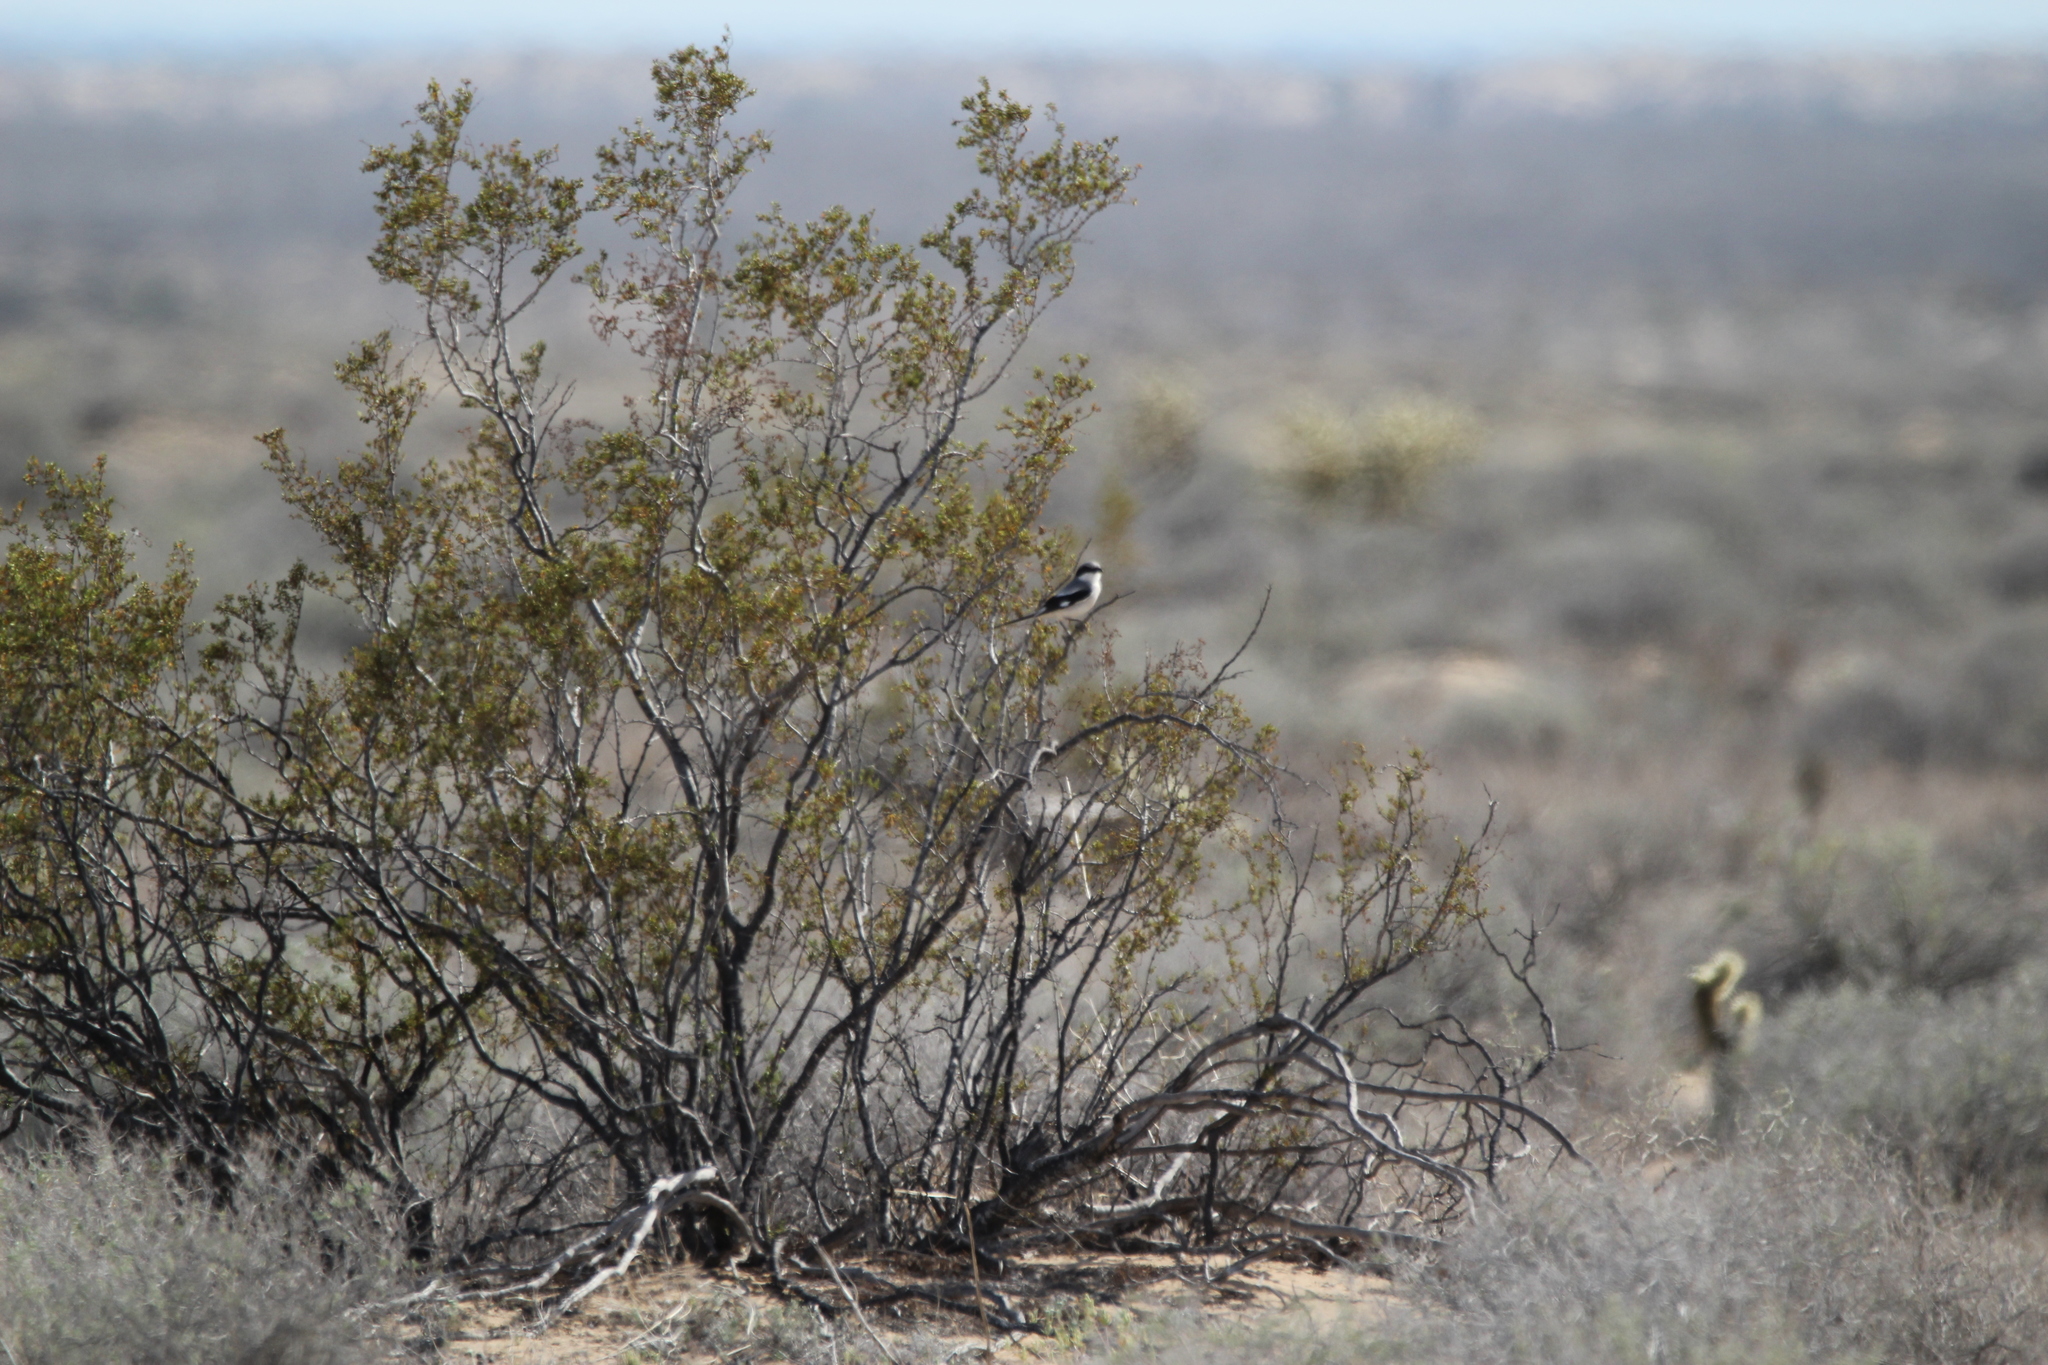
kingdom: Animalia
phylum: Chordata
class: Aves
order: Passeriformes
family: Laniidae
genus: Lanius
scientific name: Lanius ludovicianus
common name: Loggerhead shrike
